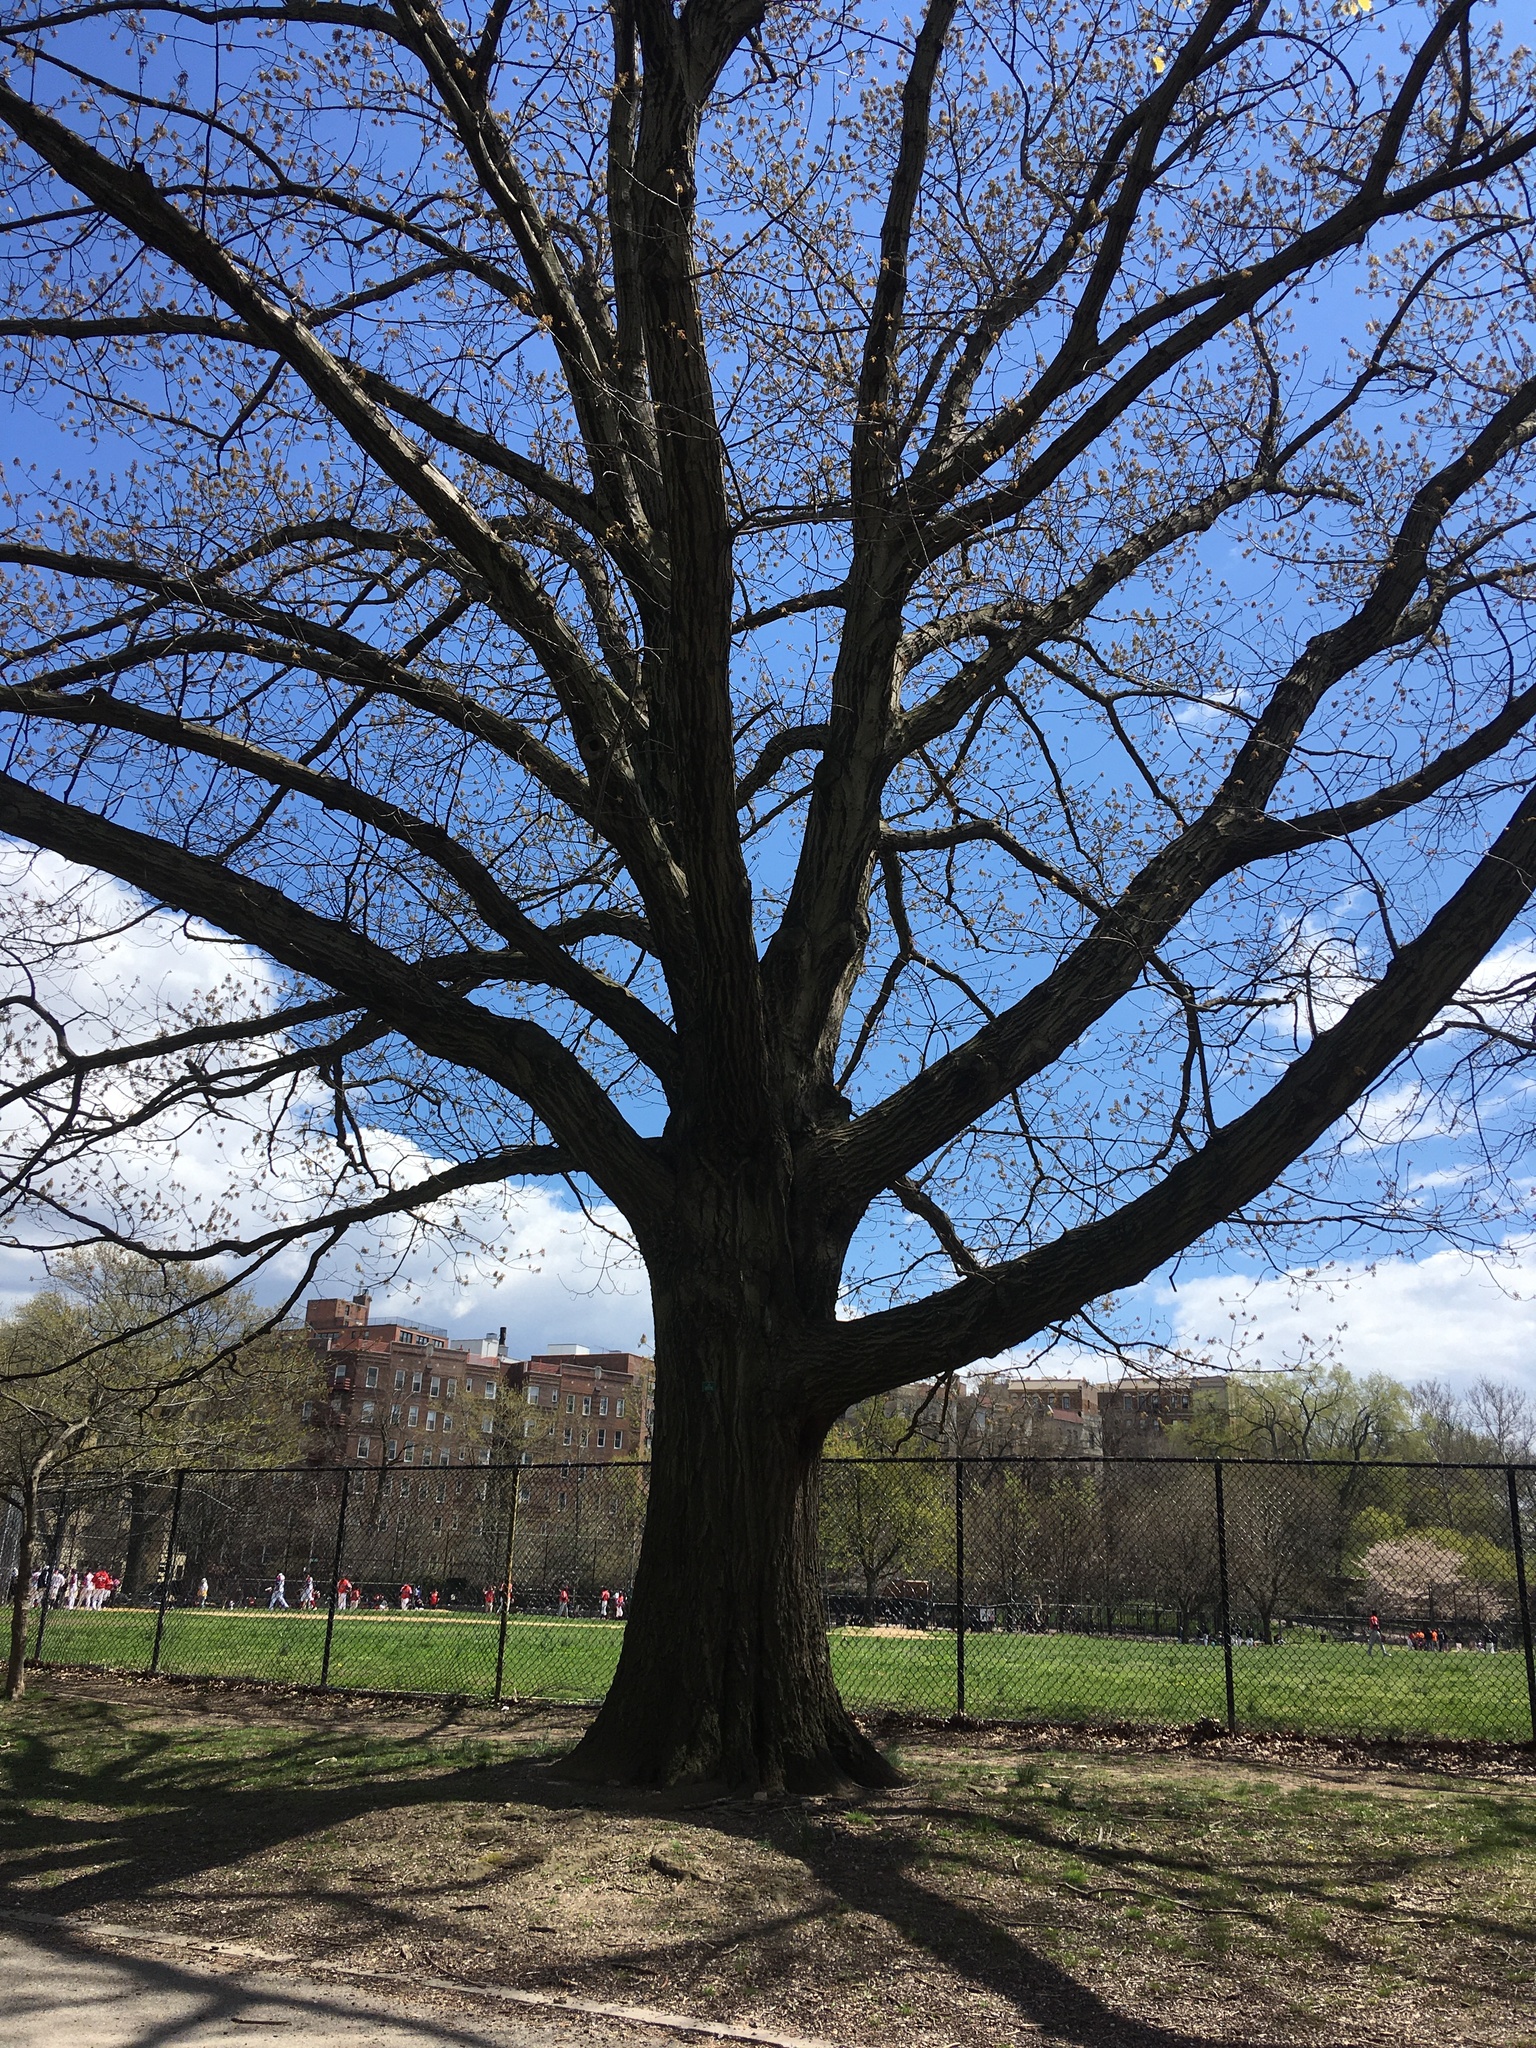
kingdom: Plantae
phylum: Tracheophyta
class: Magnoliopsida
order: Fagales
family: Fagaceae
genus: Quercus
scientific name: Quercus rubra
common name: Red oak
